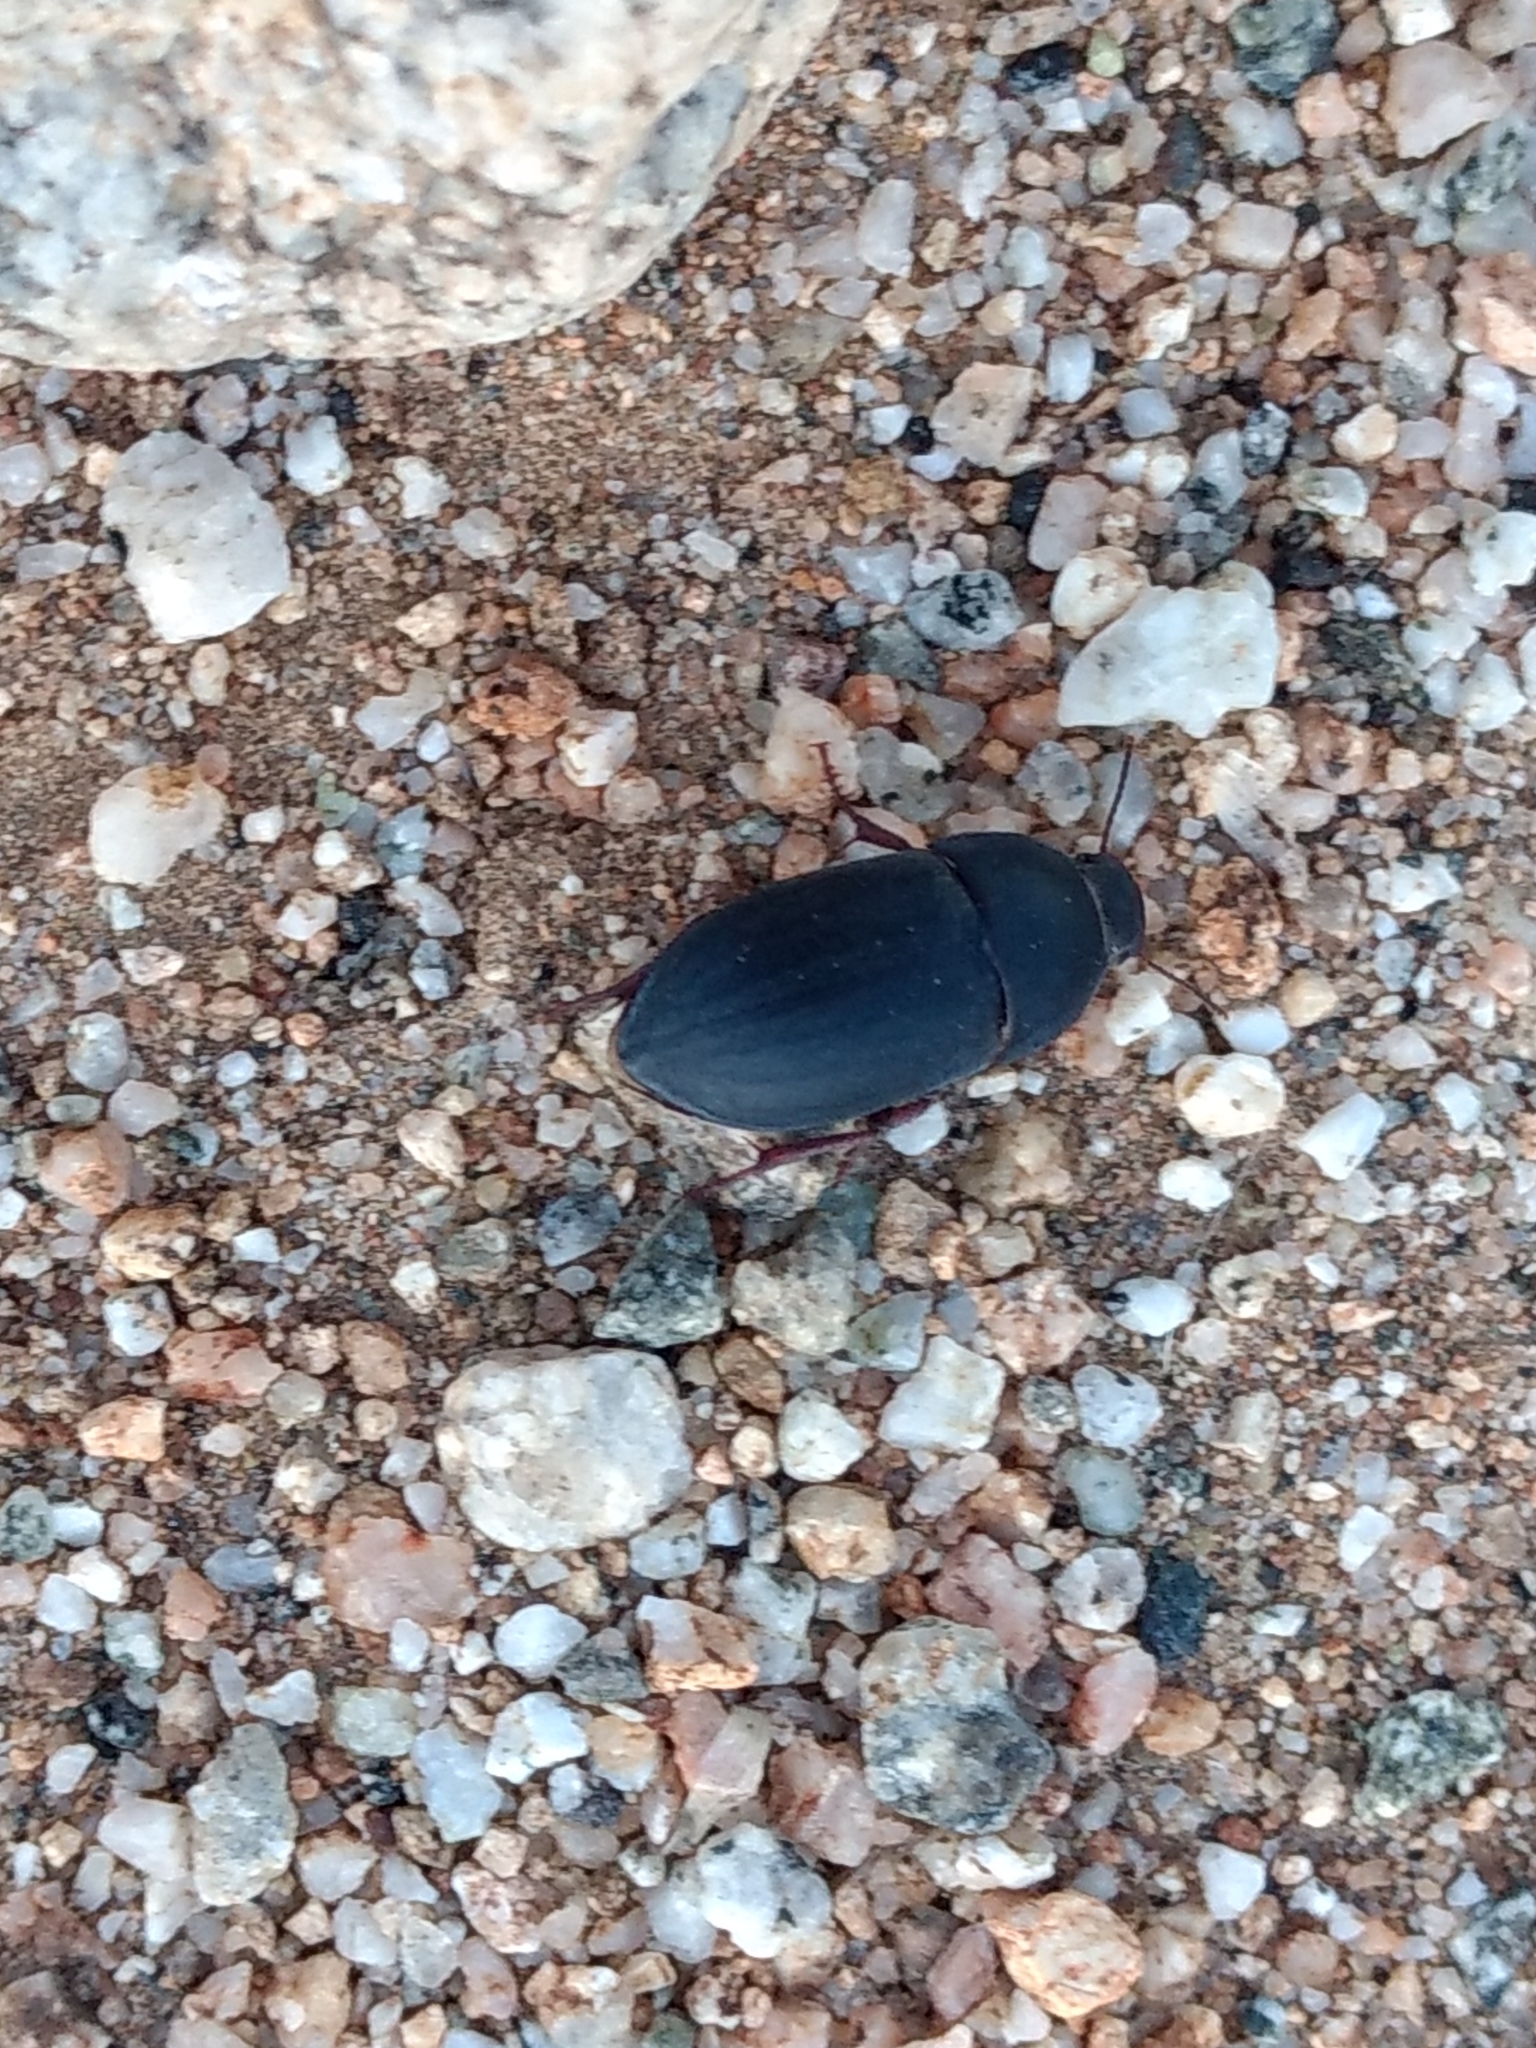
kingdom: Animalia
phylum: Arthropoda
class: Insecta
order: Coleoptera
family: Tenebrionidae
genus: Coniontis
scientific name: Coniontis
